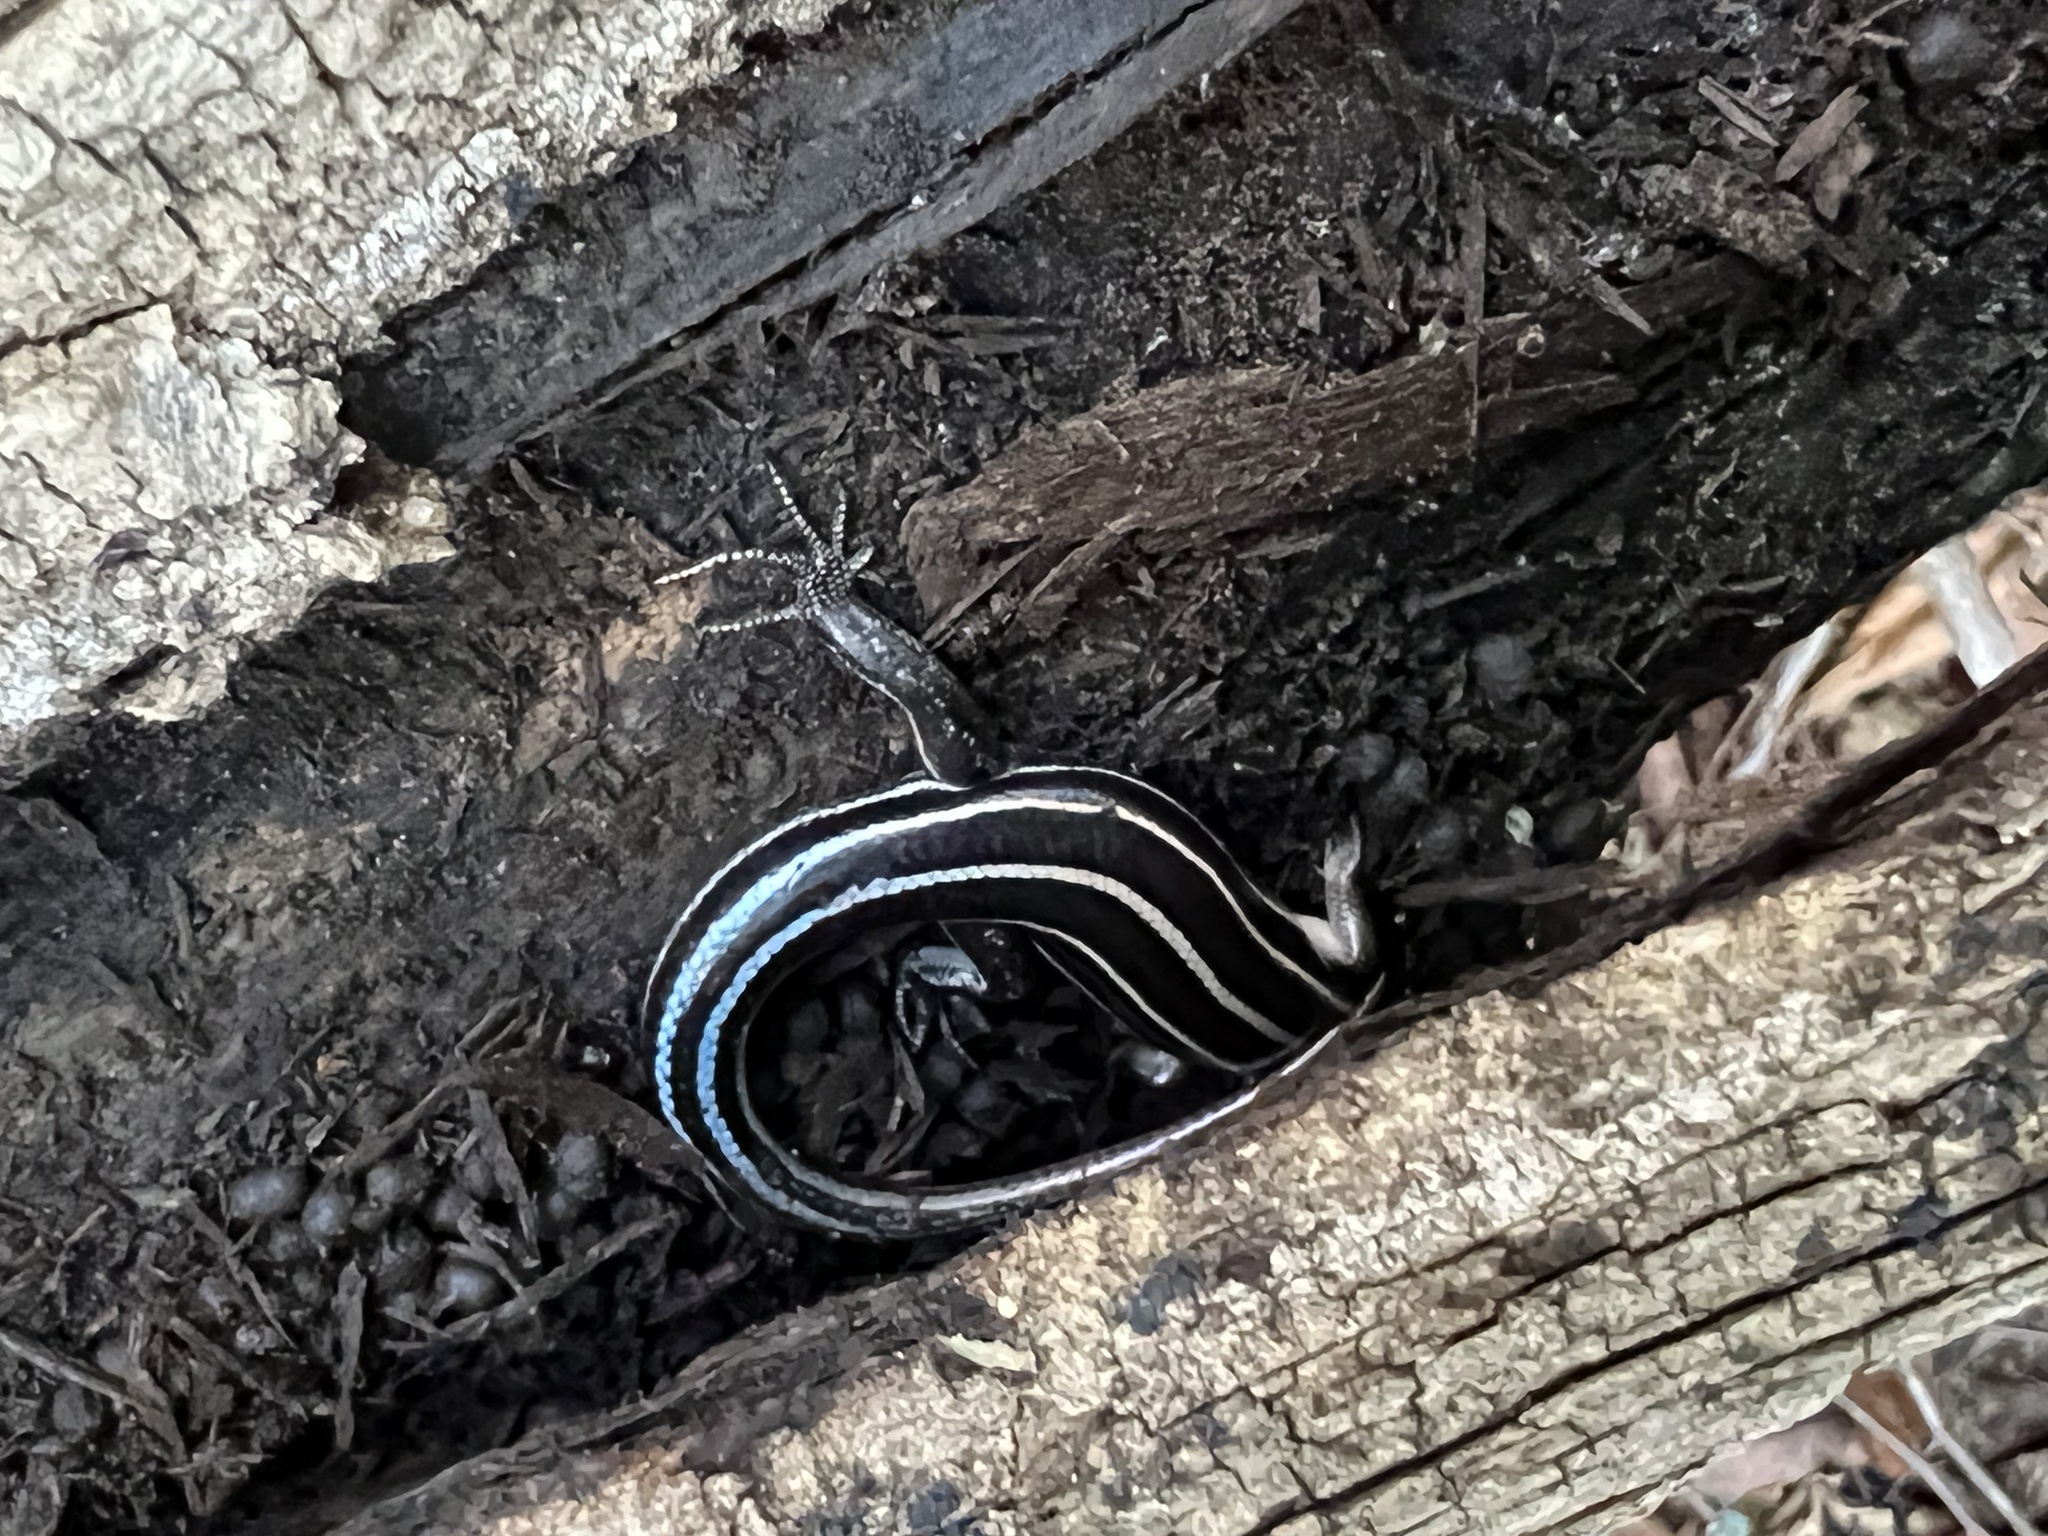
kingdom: Animalia
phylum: Chordata
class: Squamata
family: Scincidae
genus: Plestiodon
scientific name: Plestiodon fasciatus
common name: Five-lined skink
